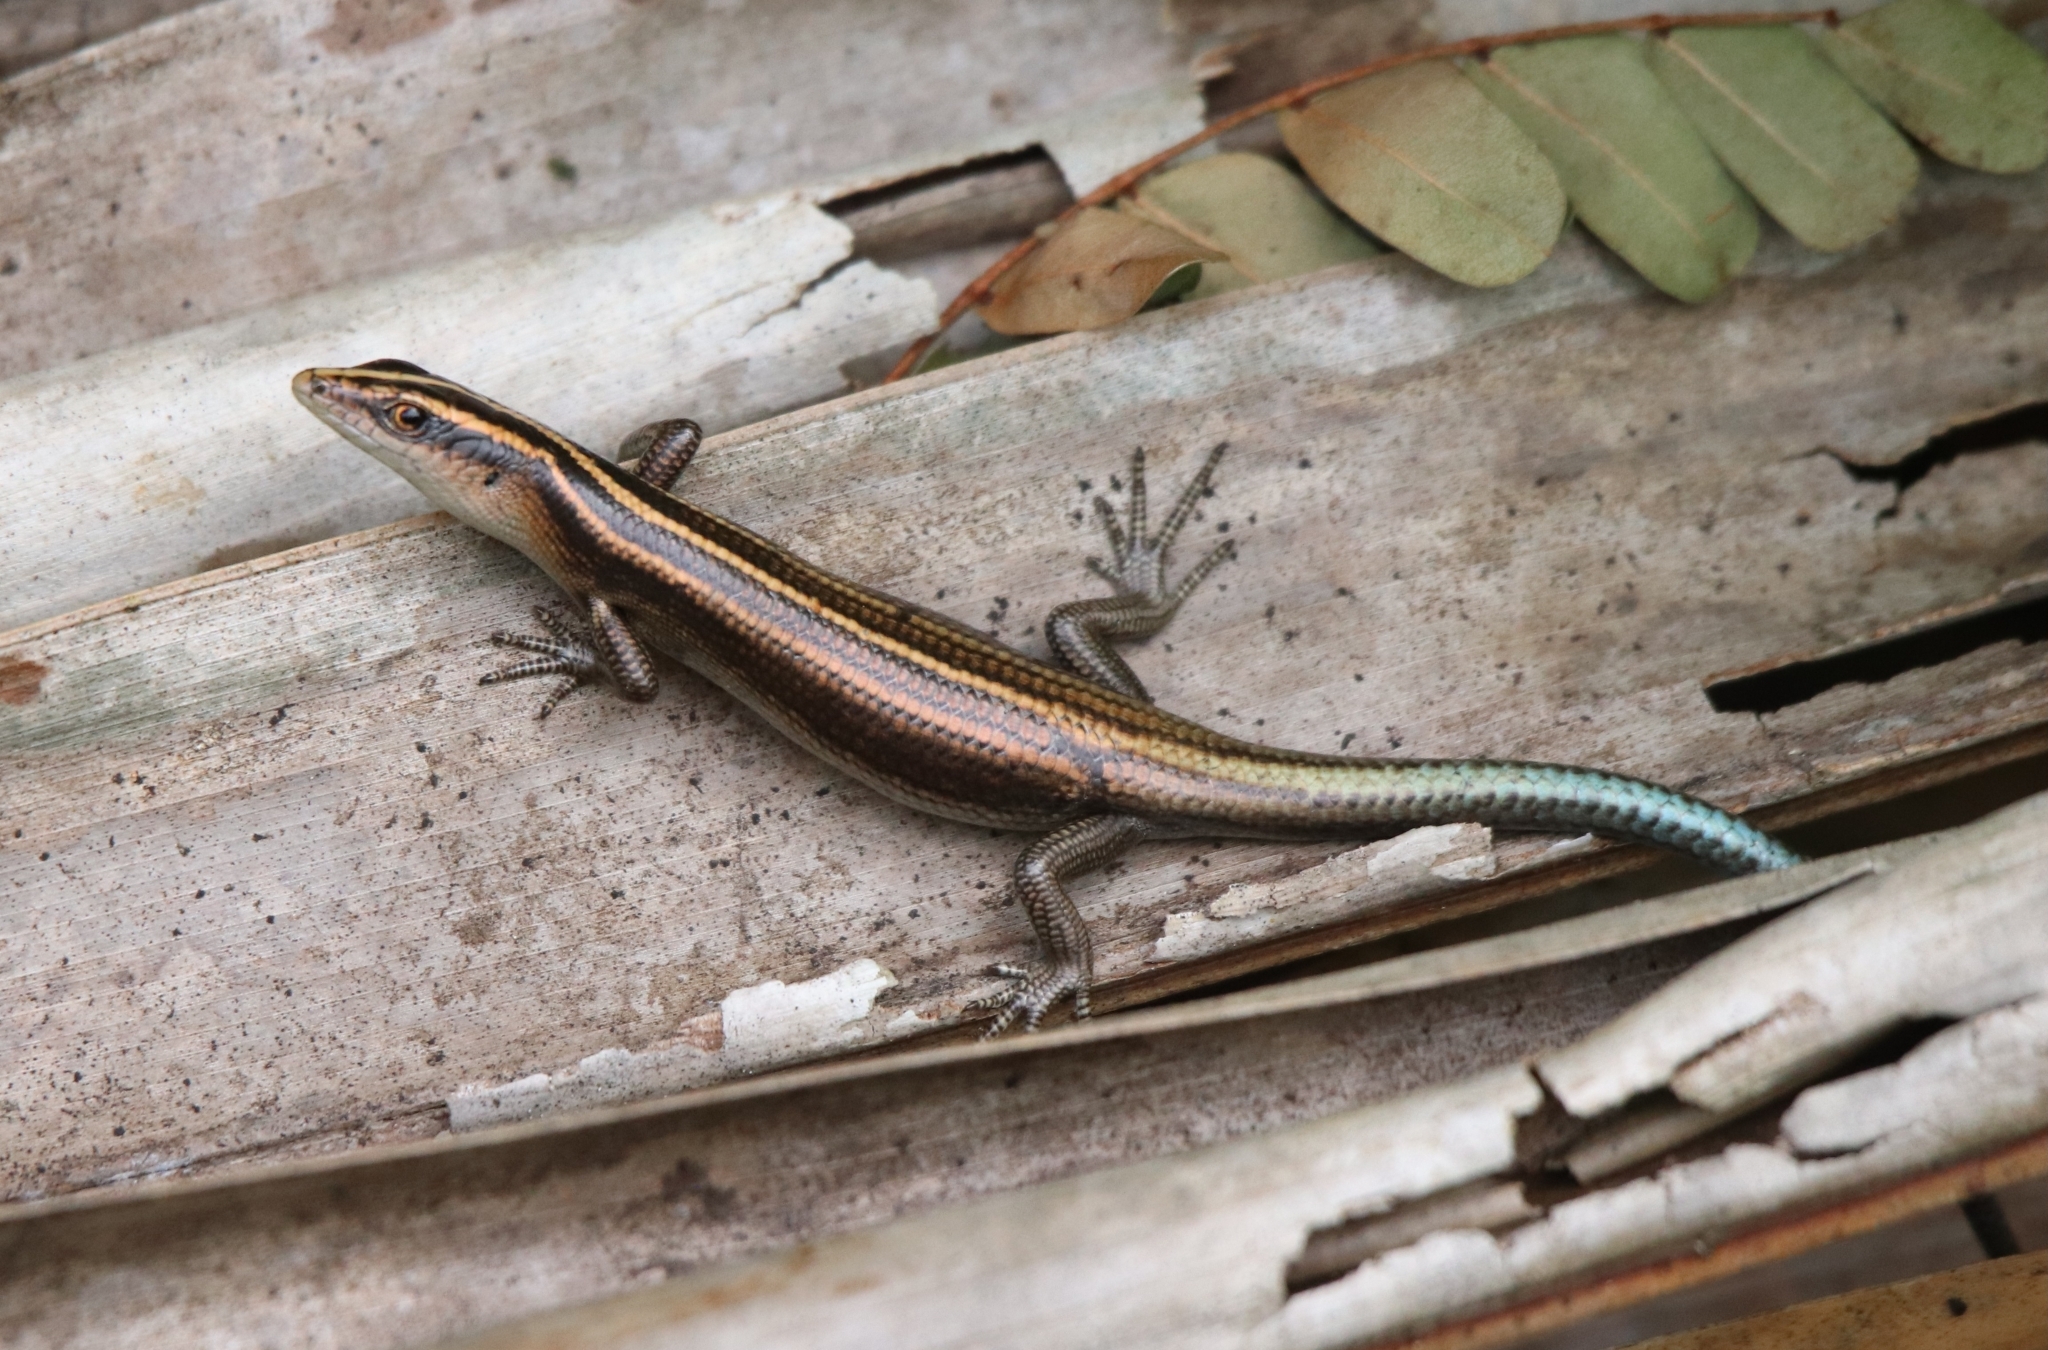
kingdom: Animalia
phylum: Chordata
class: Squamata
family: Scincidae
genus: Emoia
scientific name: Emoia impar
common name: Azure-tailed skink
